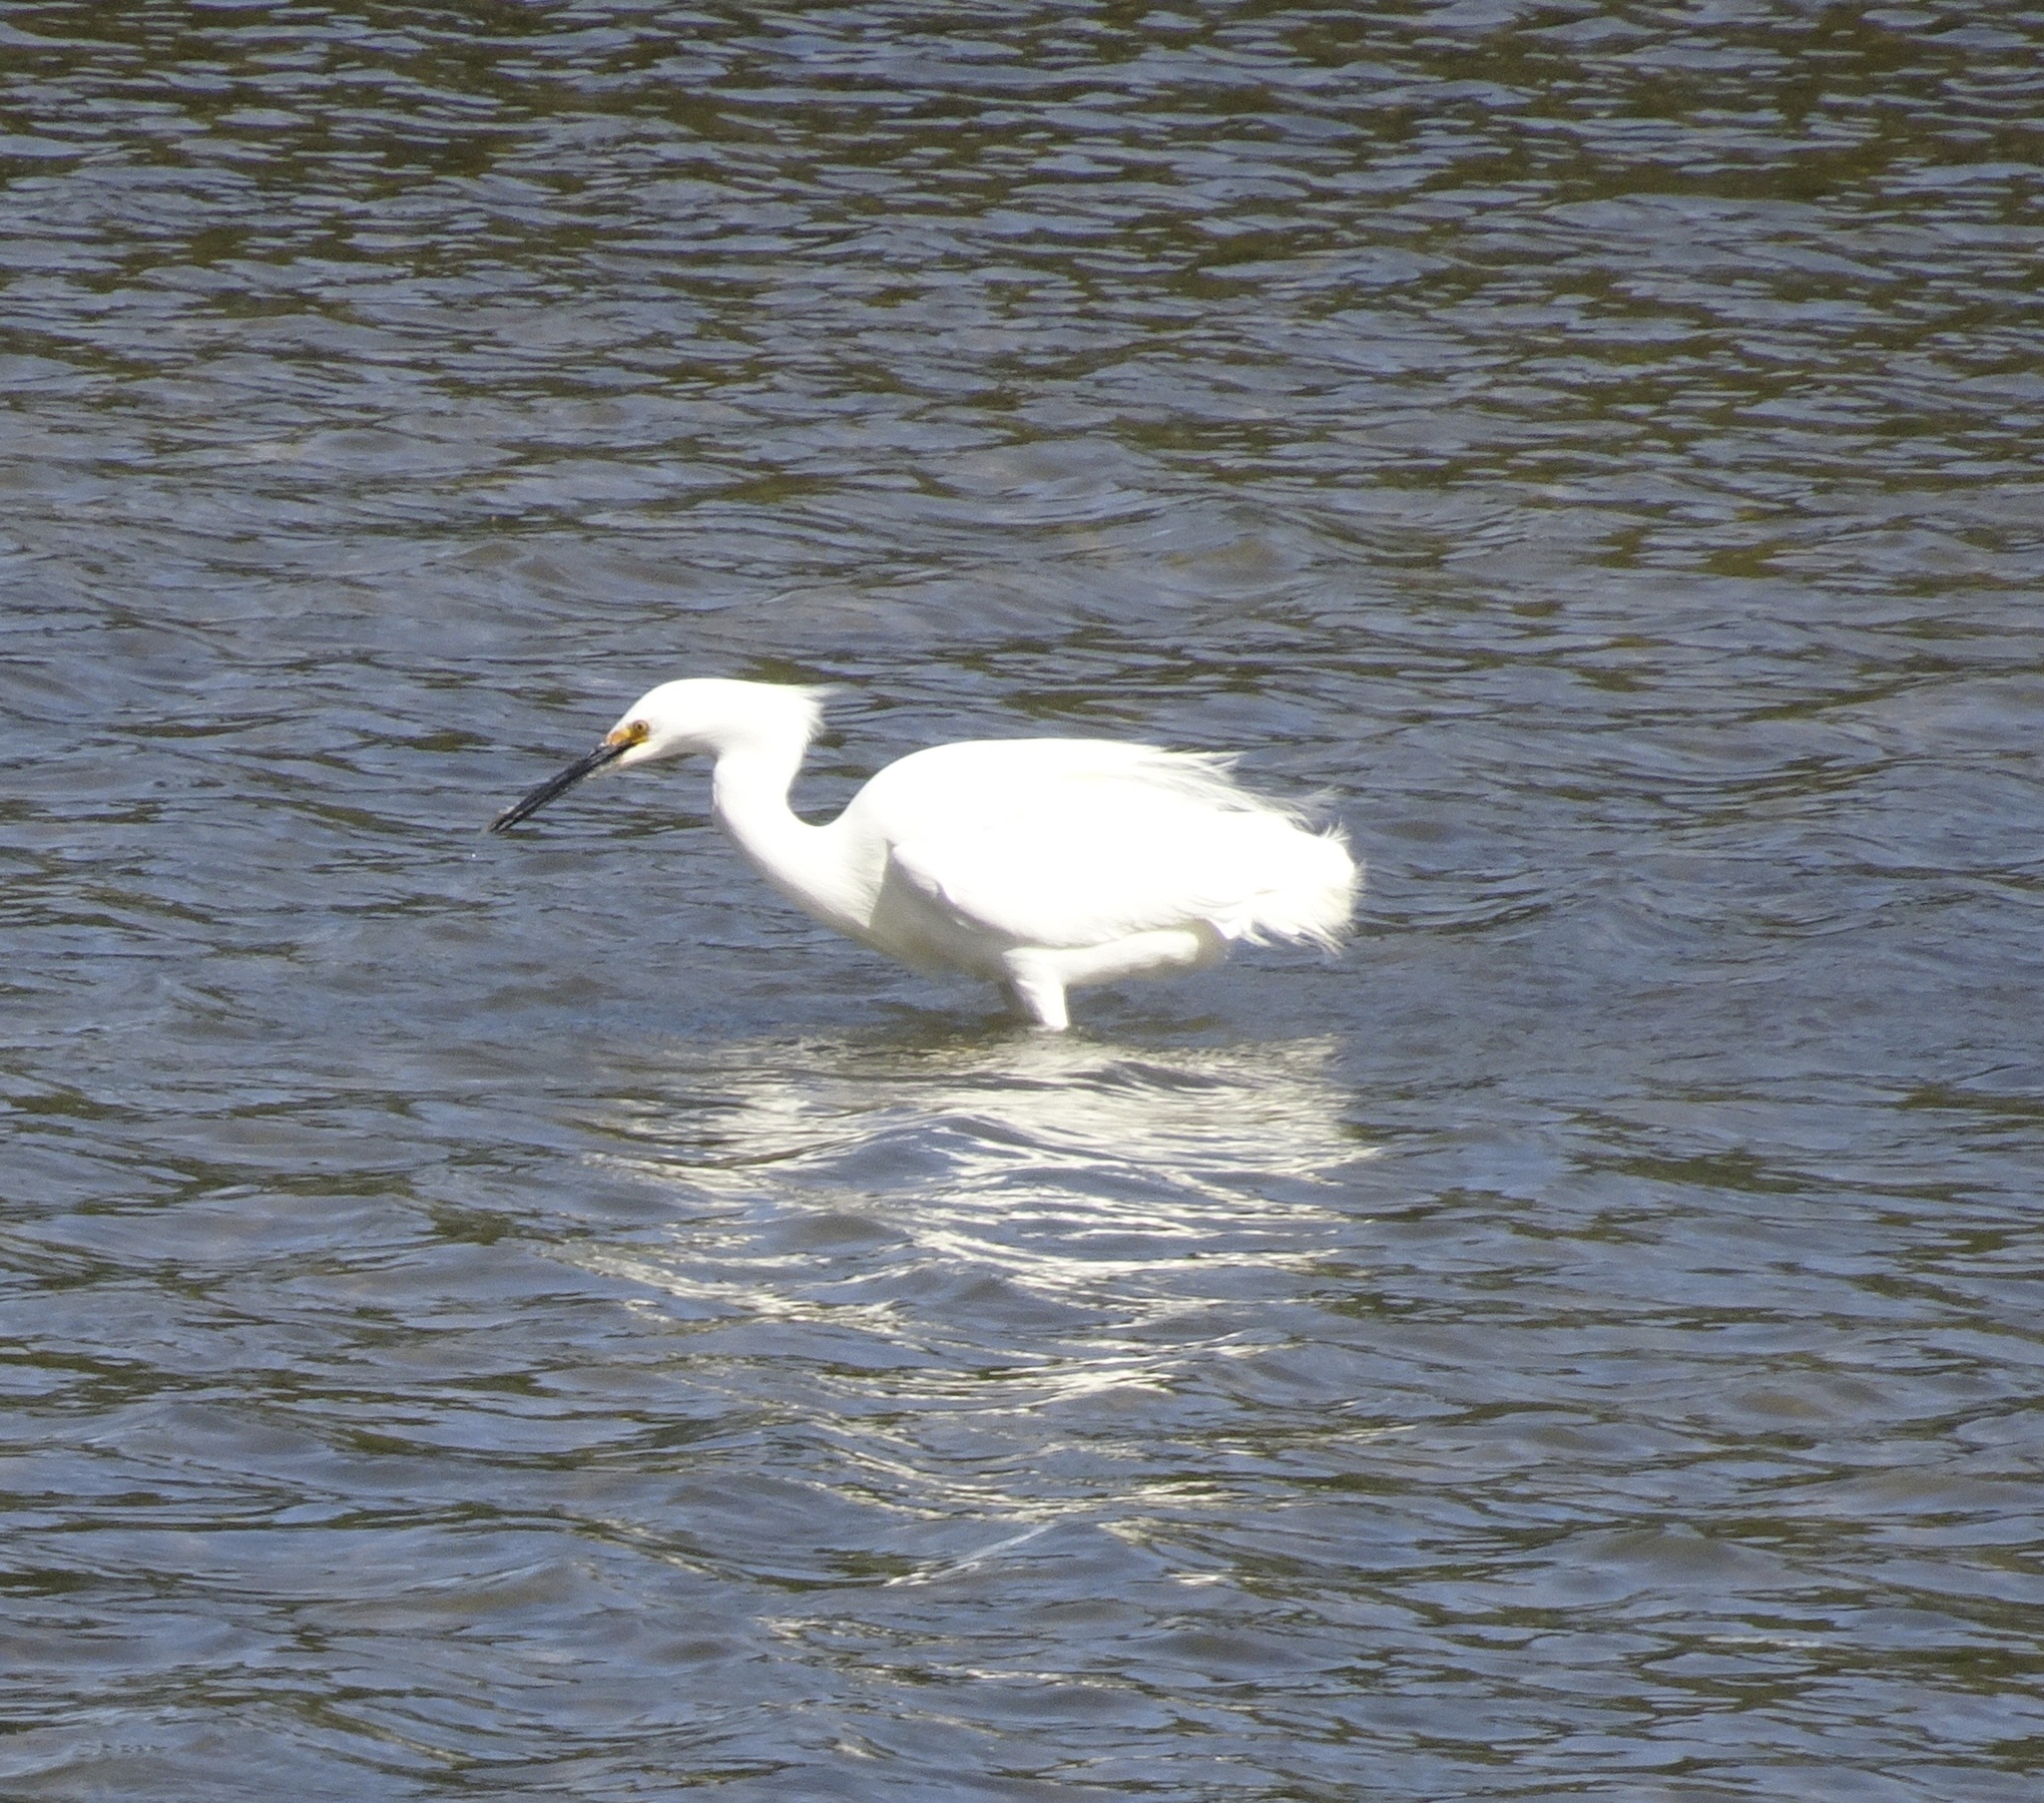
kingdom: Animalia
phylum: Chordata
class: Aves
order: Pelecaniformes
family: Ardeidae
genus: Egretta
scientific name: Egretta thula
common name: Snowy egret
